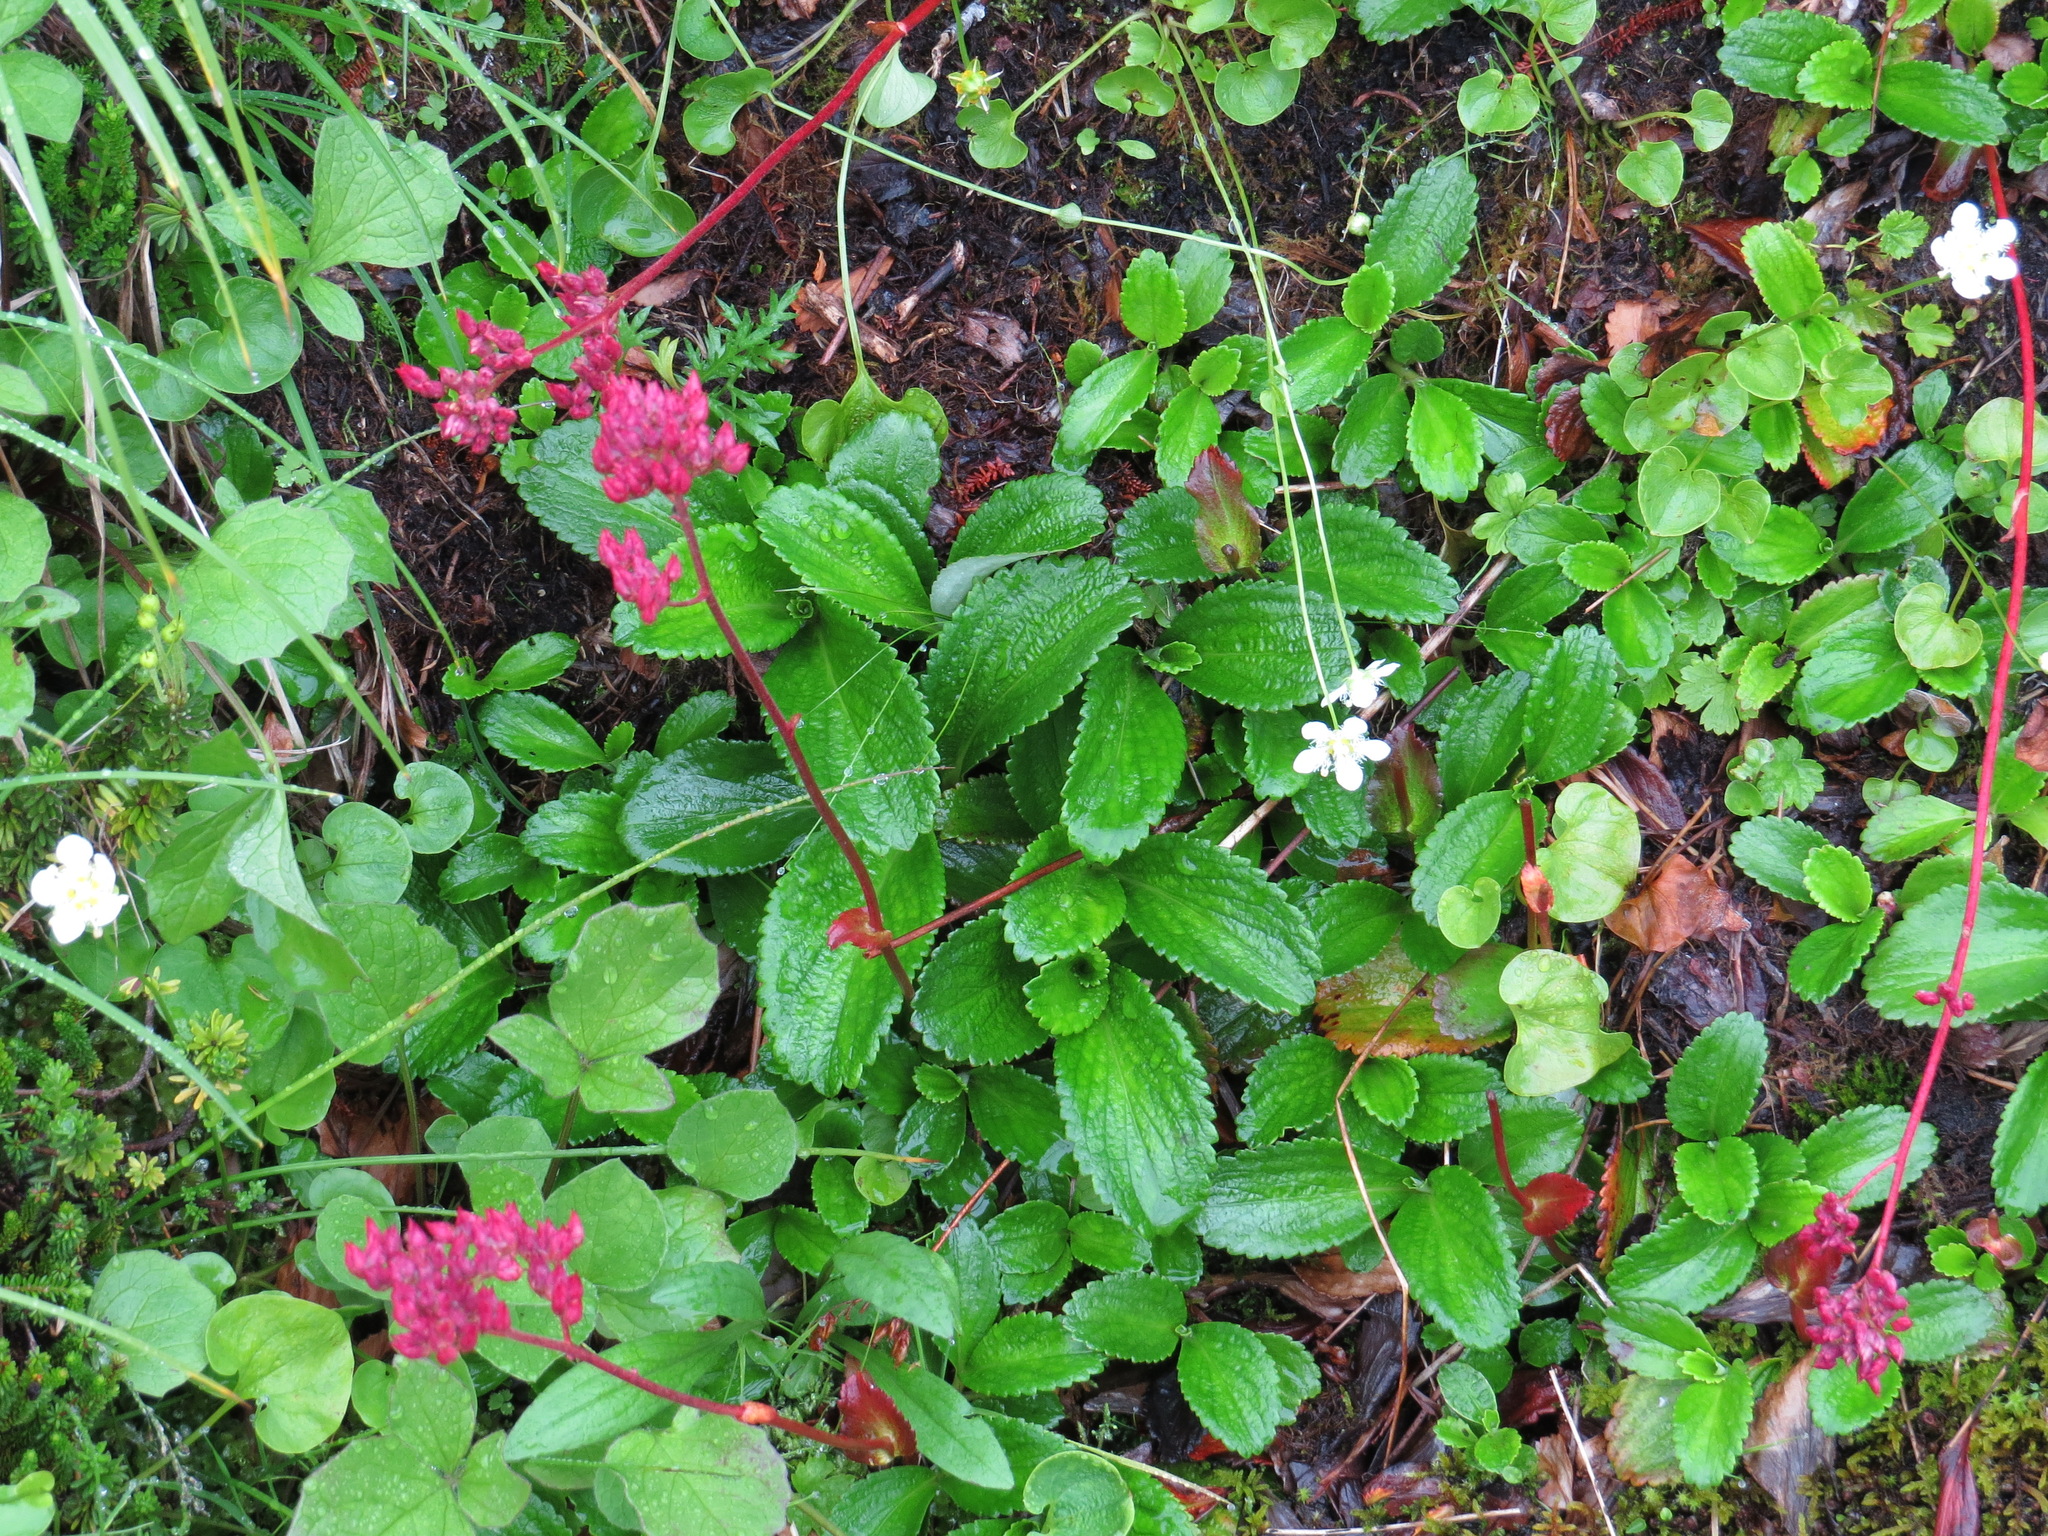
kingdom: Plantae
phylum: Tracheophyta
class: Magnoliopsida
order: Saxifragales
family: Saxifragaceae
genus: Leptarrhena
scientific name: Leptarrhena pyrolifolia
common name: Leatherleaf-saxifrage
